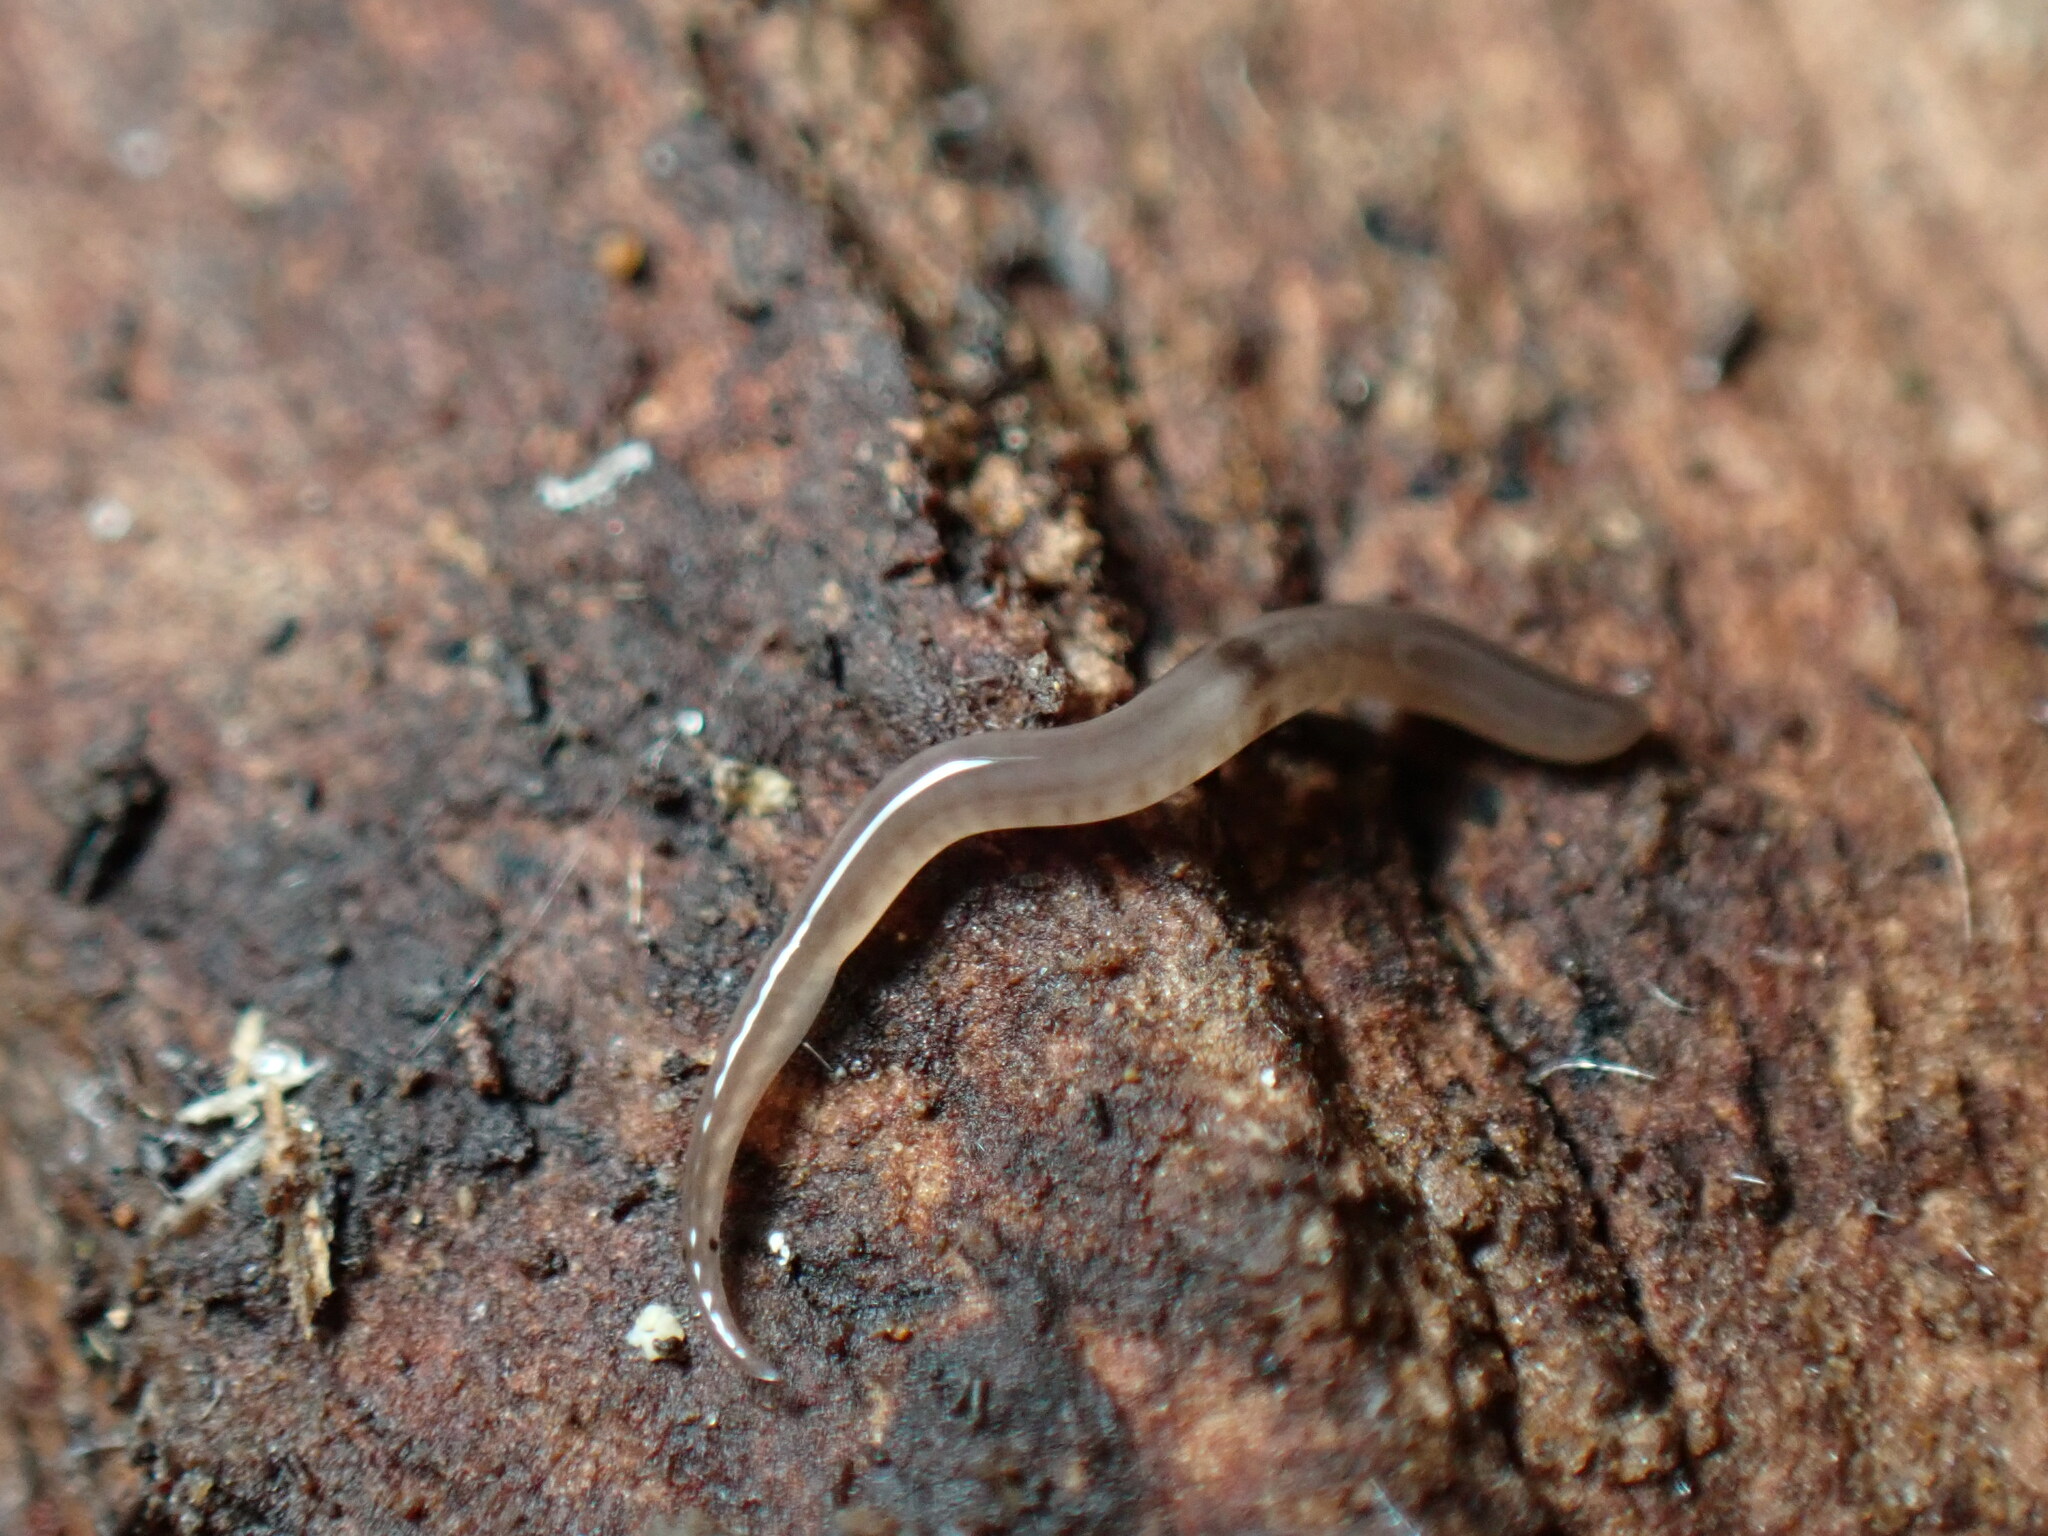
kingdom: Animalia
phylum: Platyhelminthes
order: Tricladida
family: Geoplanidae
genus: Rhynchodemus
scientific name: Rhynchodemus sylvaticus
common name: A flatworm
